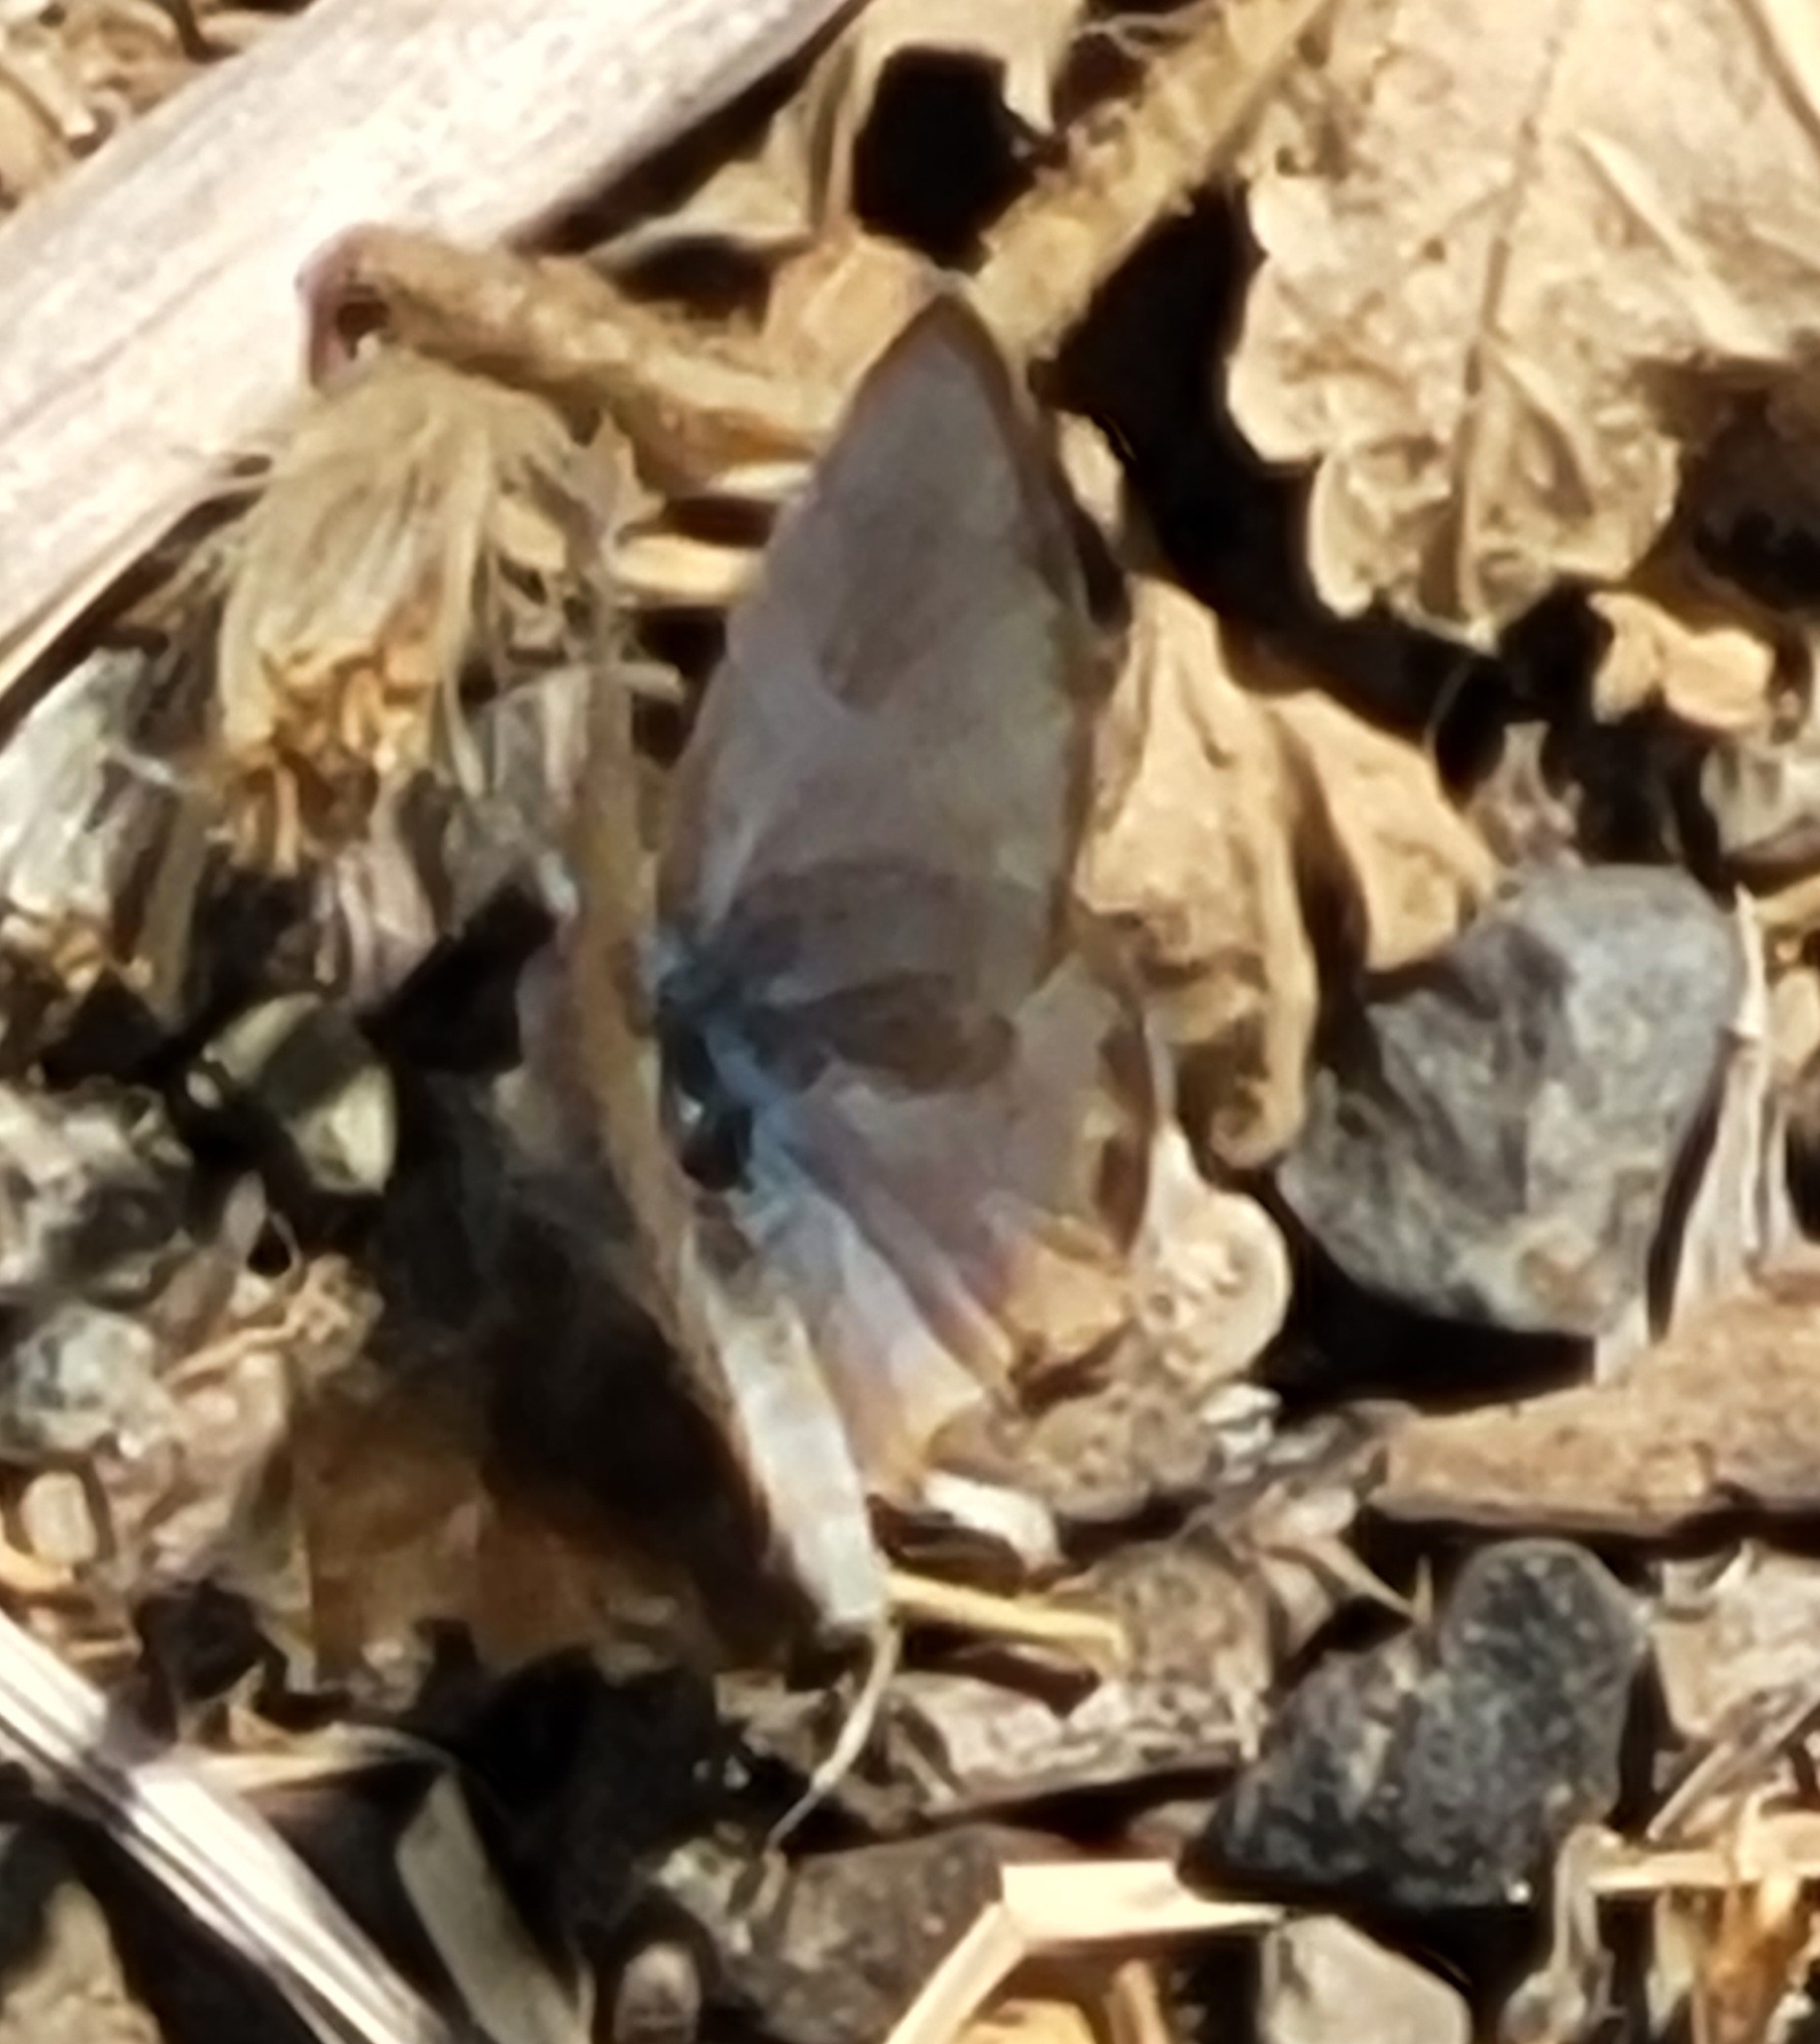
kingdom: Animalia
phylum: Arthropoda
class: Insecta
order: Lepidoptera
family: Lycaenidae
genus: Icaricia
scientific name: Icaricia acmon
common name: Acmon blue
